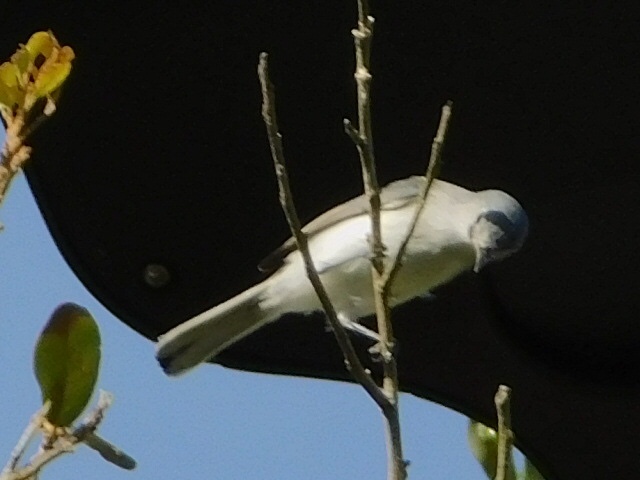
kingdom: Animalia
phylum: Chordata
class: Aves
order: Passeriformes
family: Polioptilidae
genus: Polioptila
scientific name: Polioptila caerulea
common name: Blue-gray gnatcatcher
